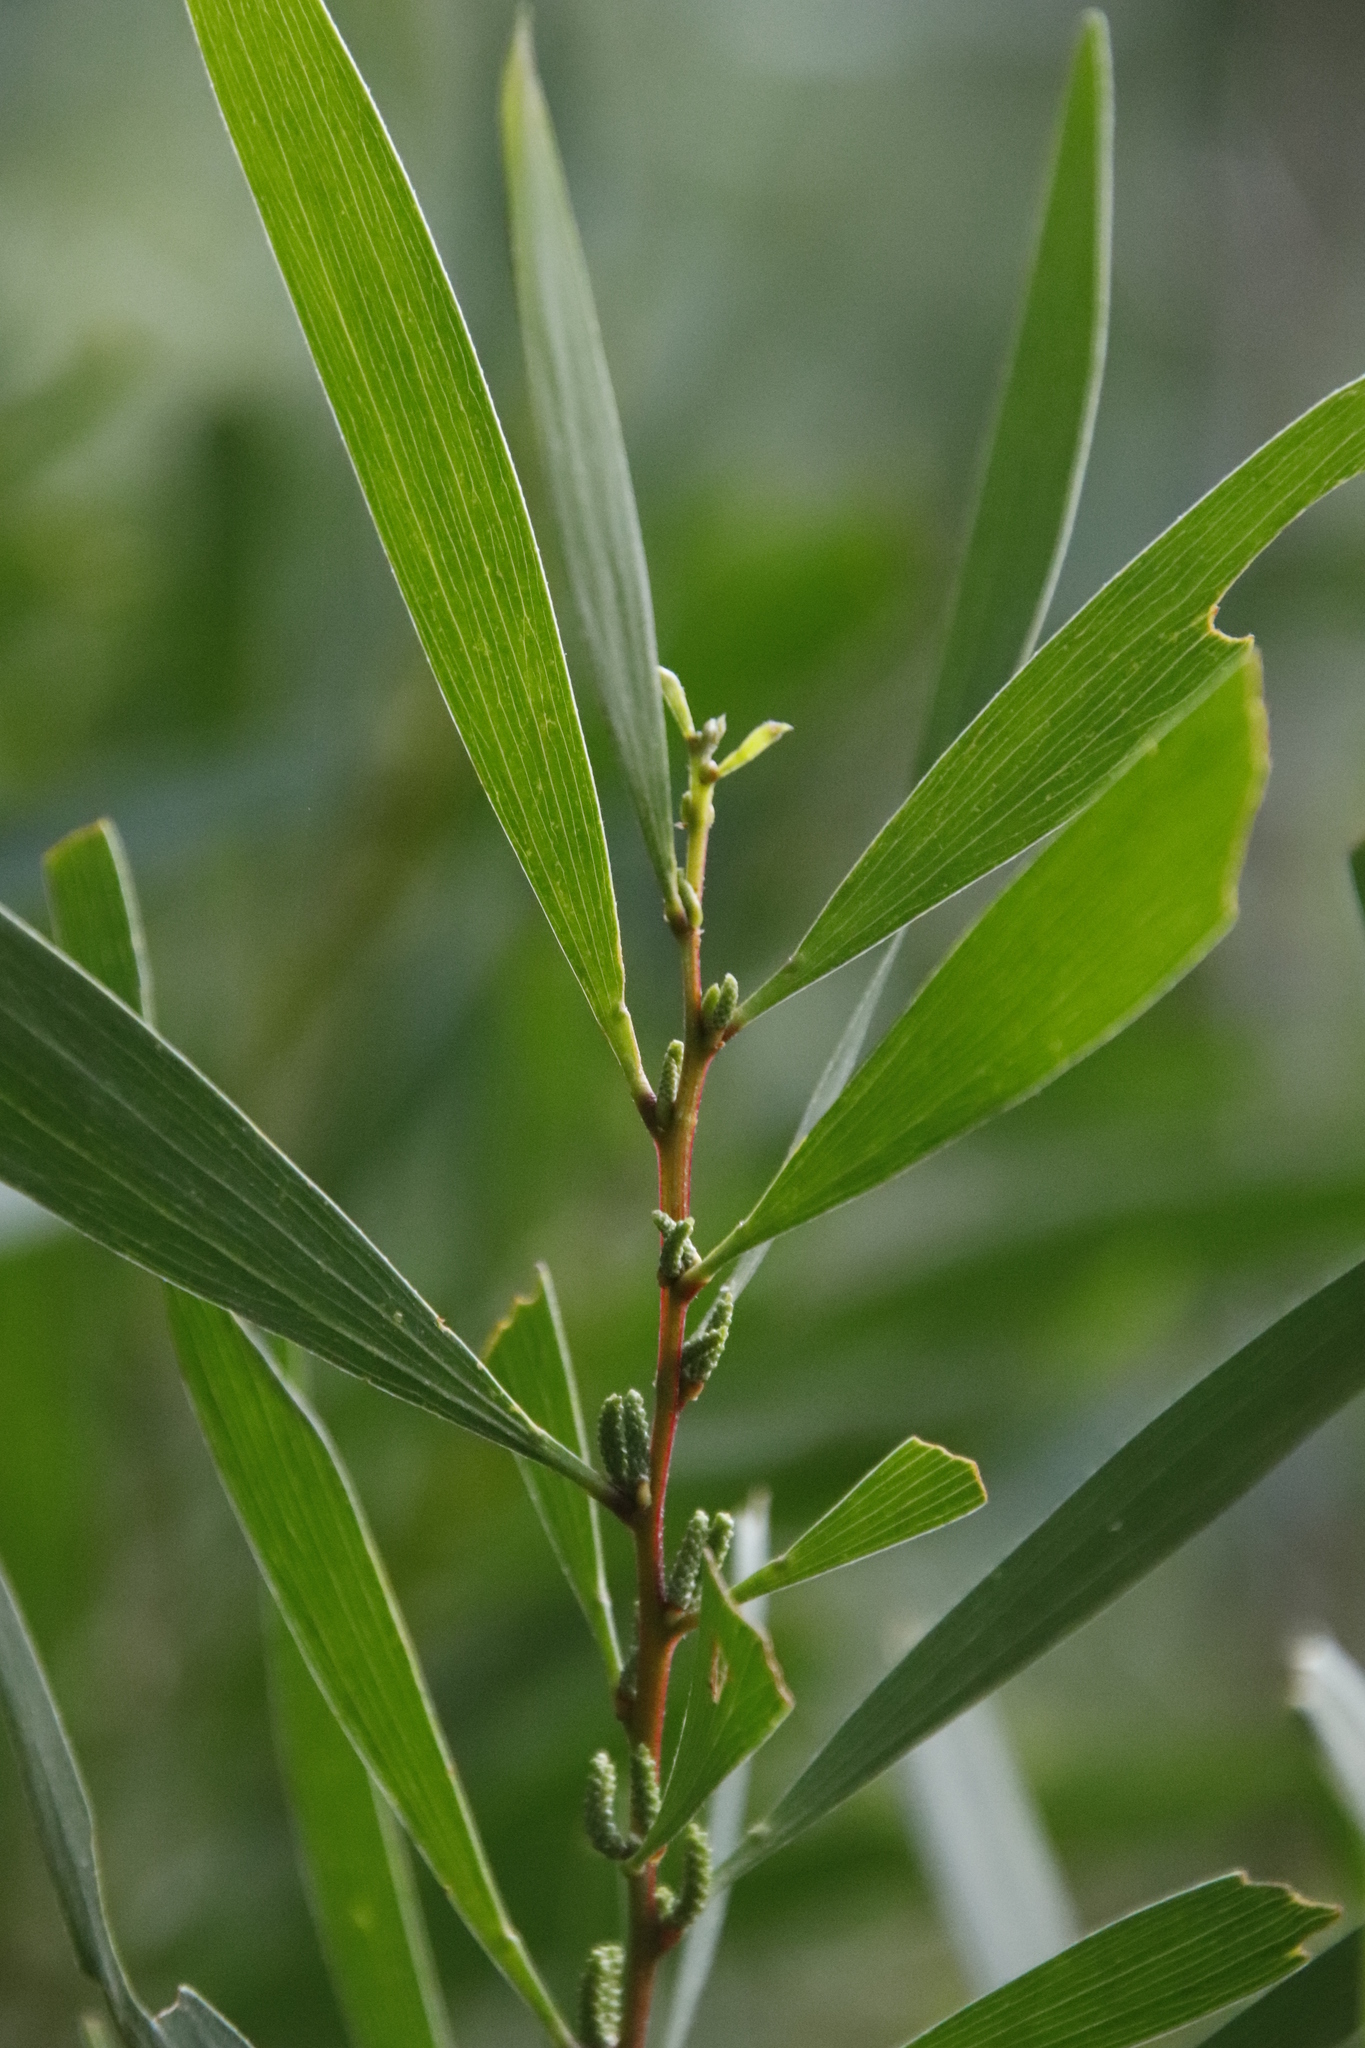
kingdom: Plantae
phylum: Tracheophyta
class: Magnoliopsida
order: Fabales
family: Fabaceae
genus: Acacia
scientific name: Acacia longifolia
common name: Sydney golden wattle
